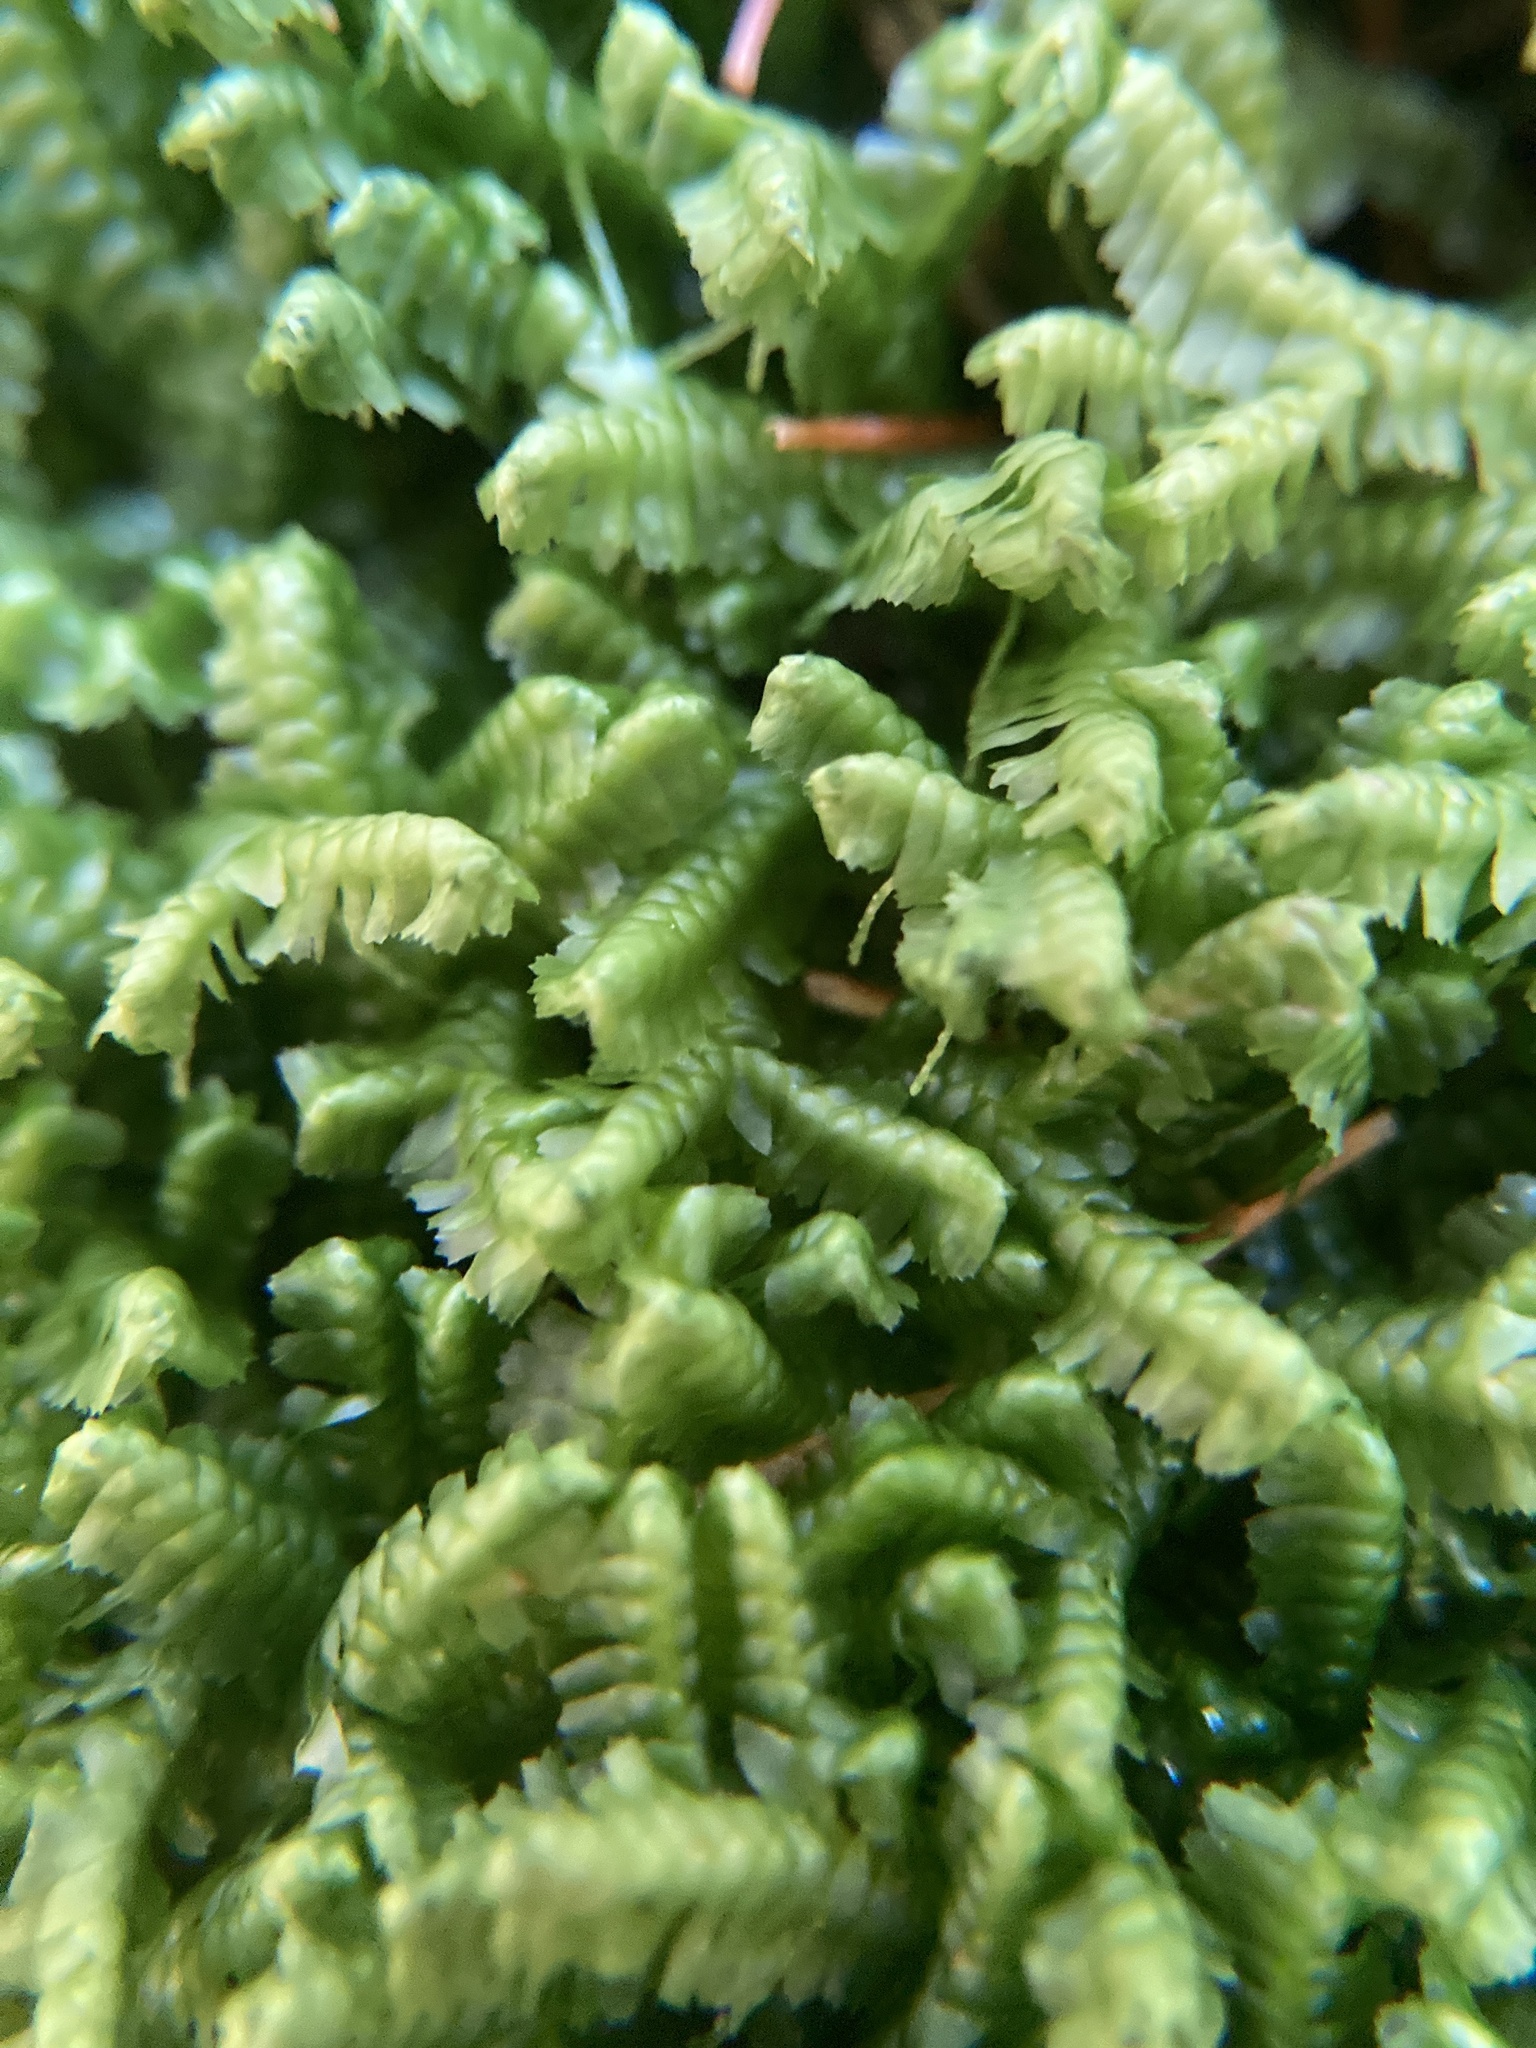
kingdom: Plantae
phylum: Marchantiophyta
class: Jungermanniopsida
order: Jungermanniales
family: Lepidoziaceae
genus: Bazzania
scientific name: Bazzania trilobata
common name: Three-lobed whipwort
